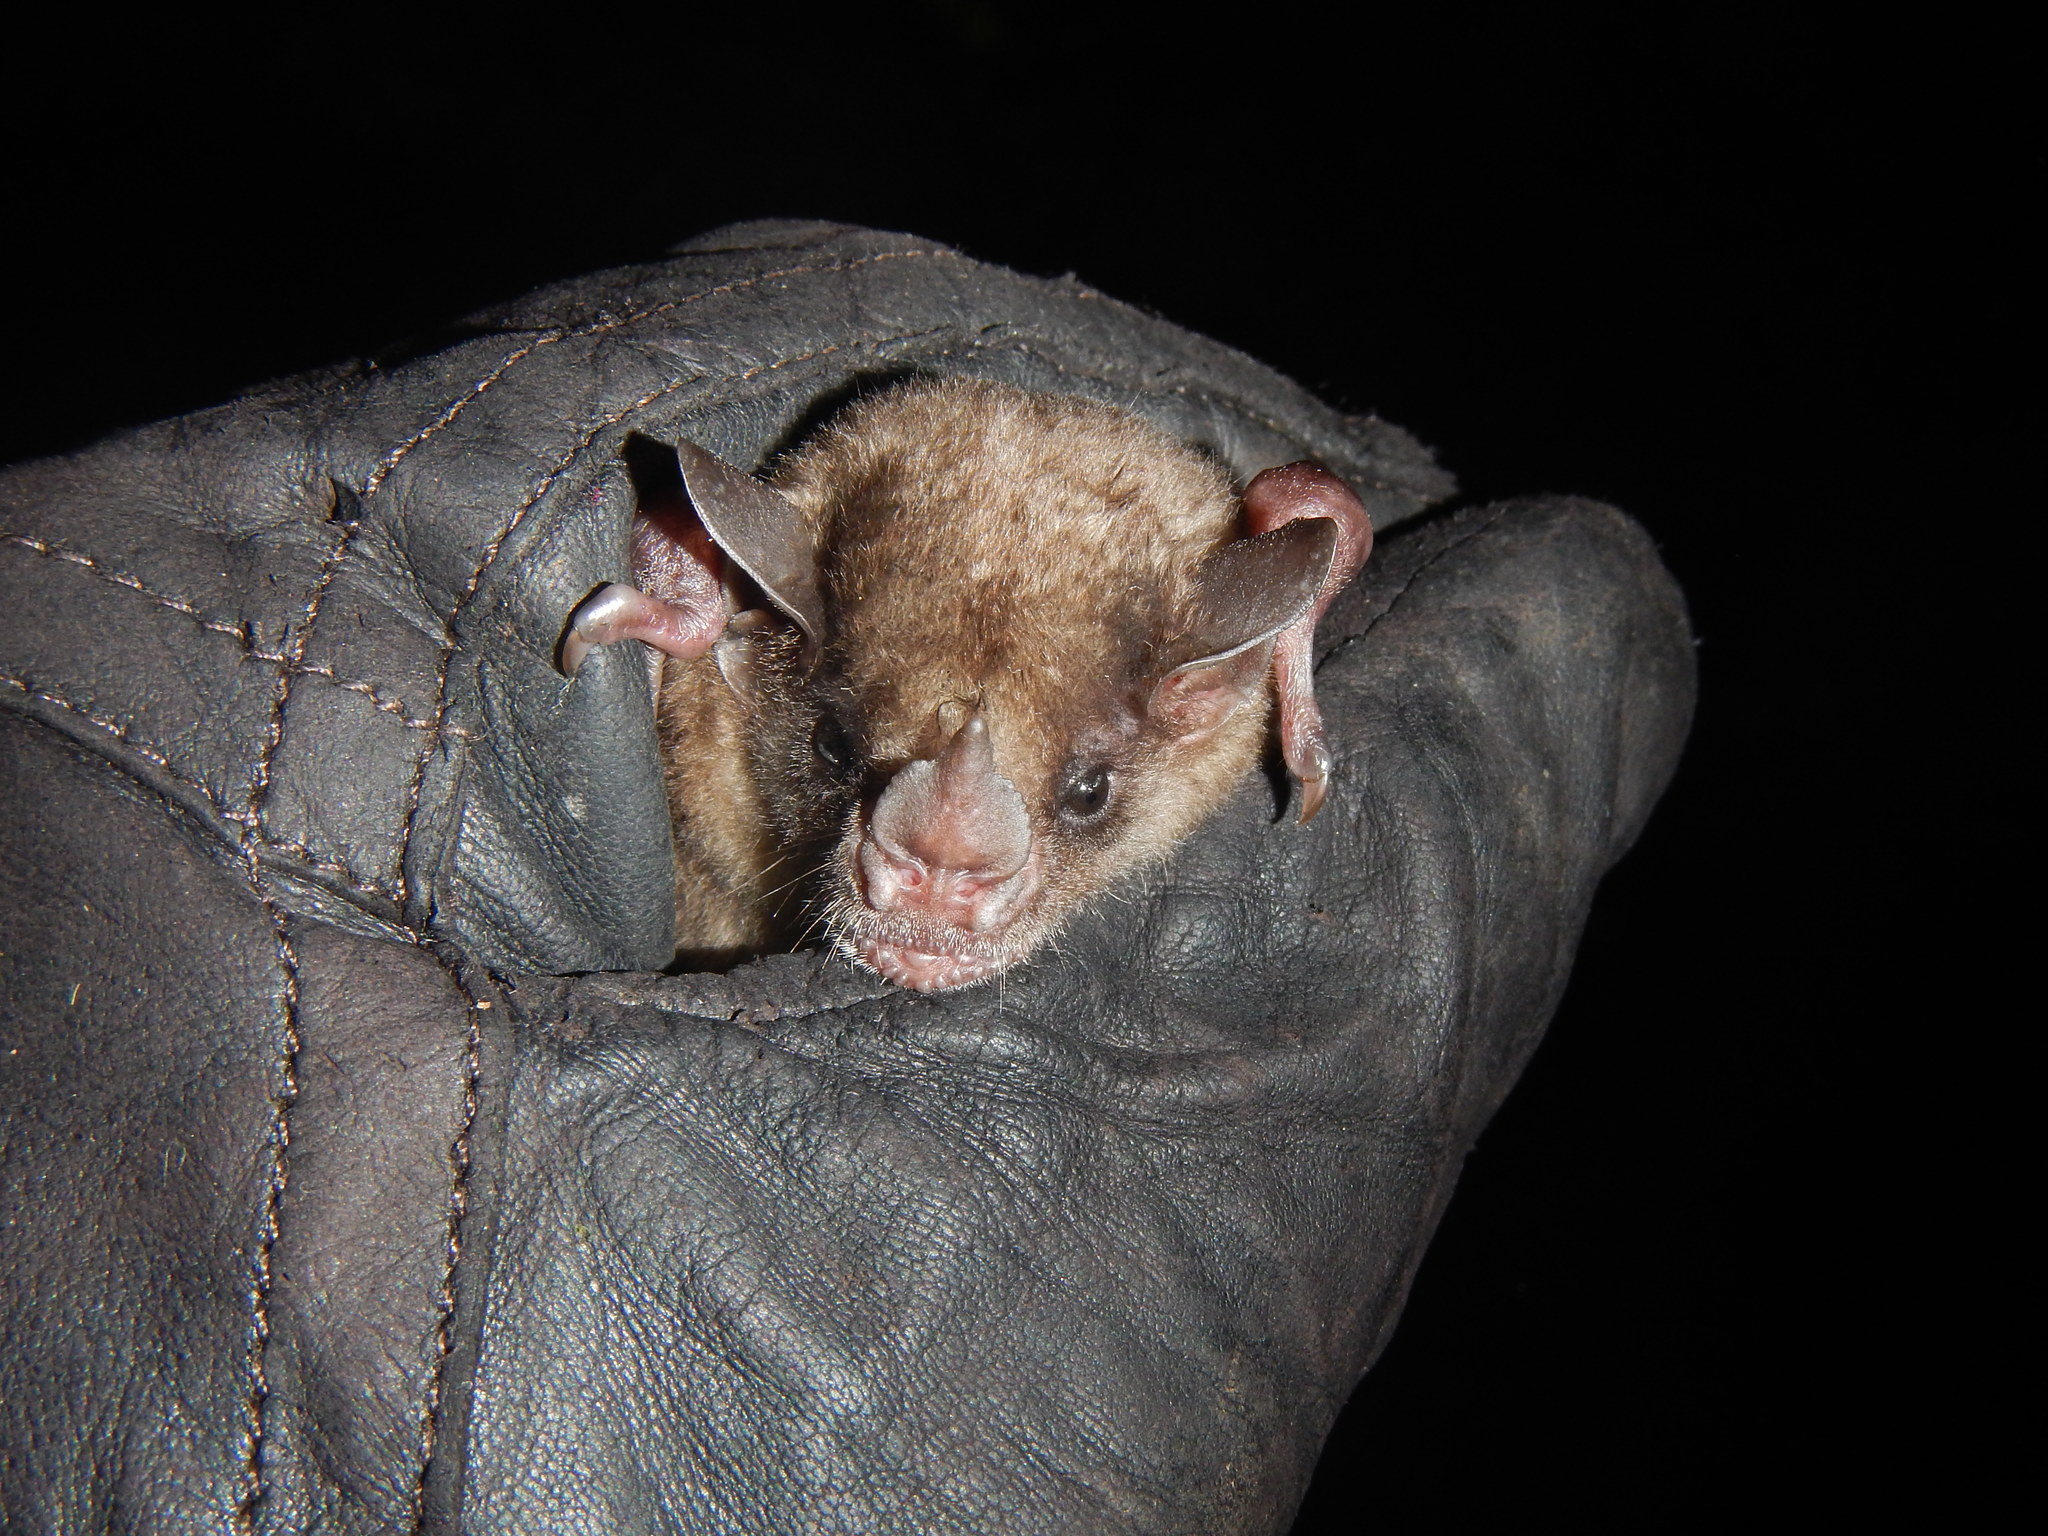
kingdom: Animalia
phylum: Chordata
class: Mammalia
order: Chiroptera
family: Phyllostomidae
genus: Sturnira
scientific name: Sturnira tildae
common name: Tilda's yellow-shouldered bat
